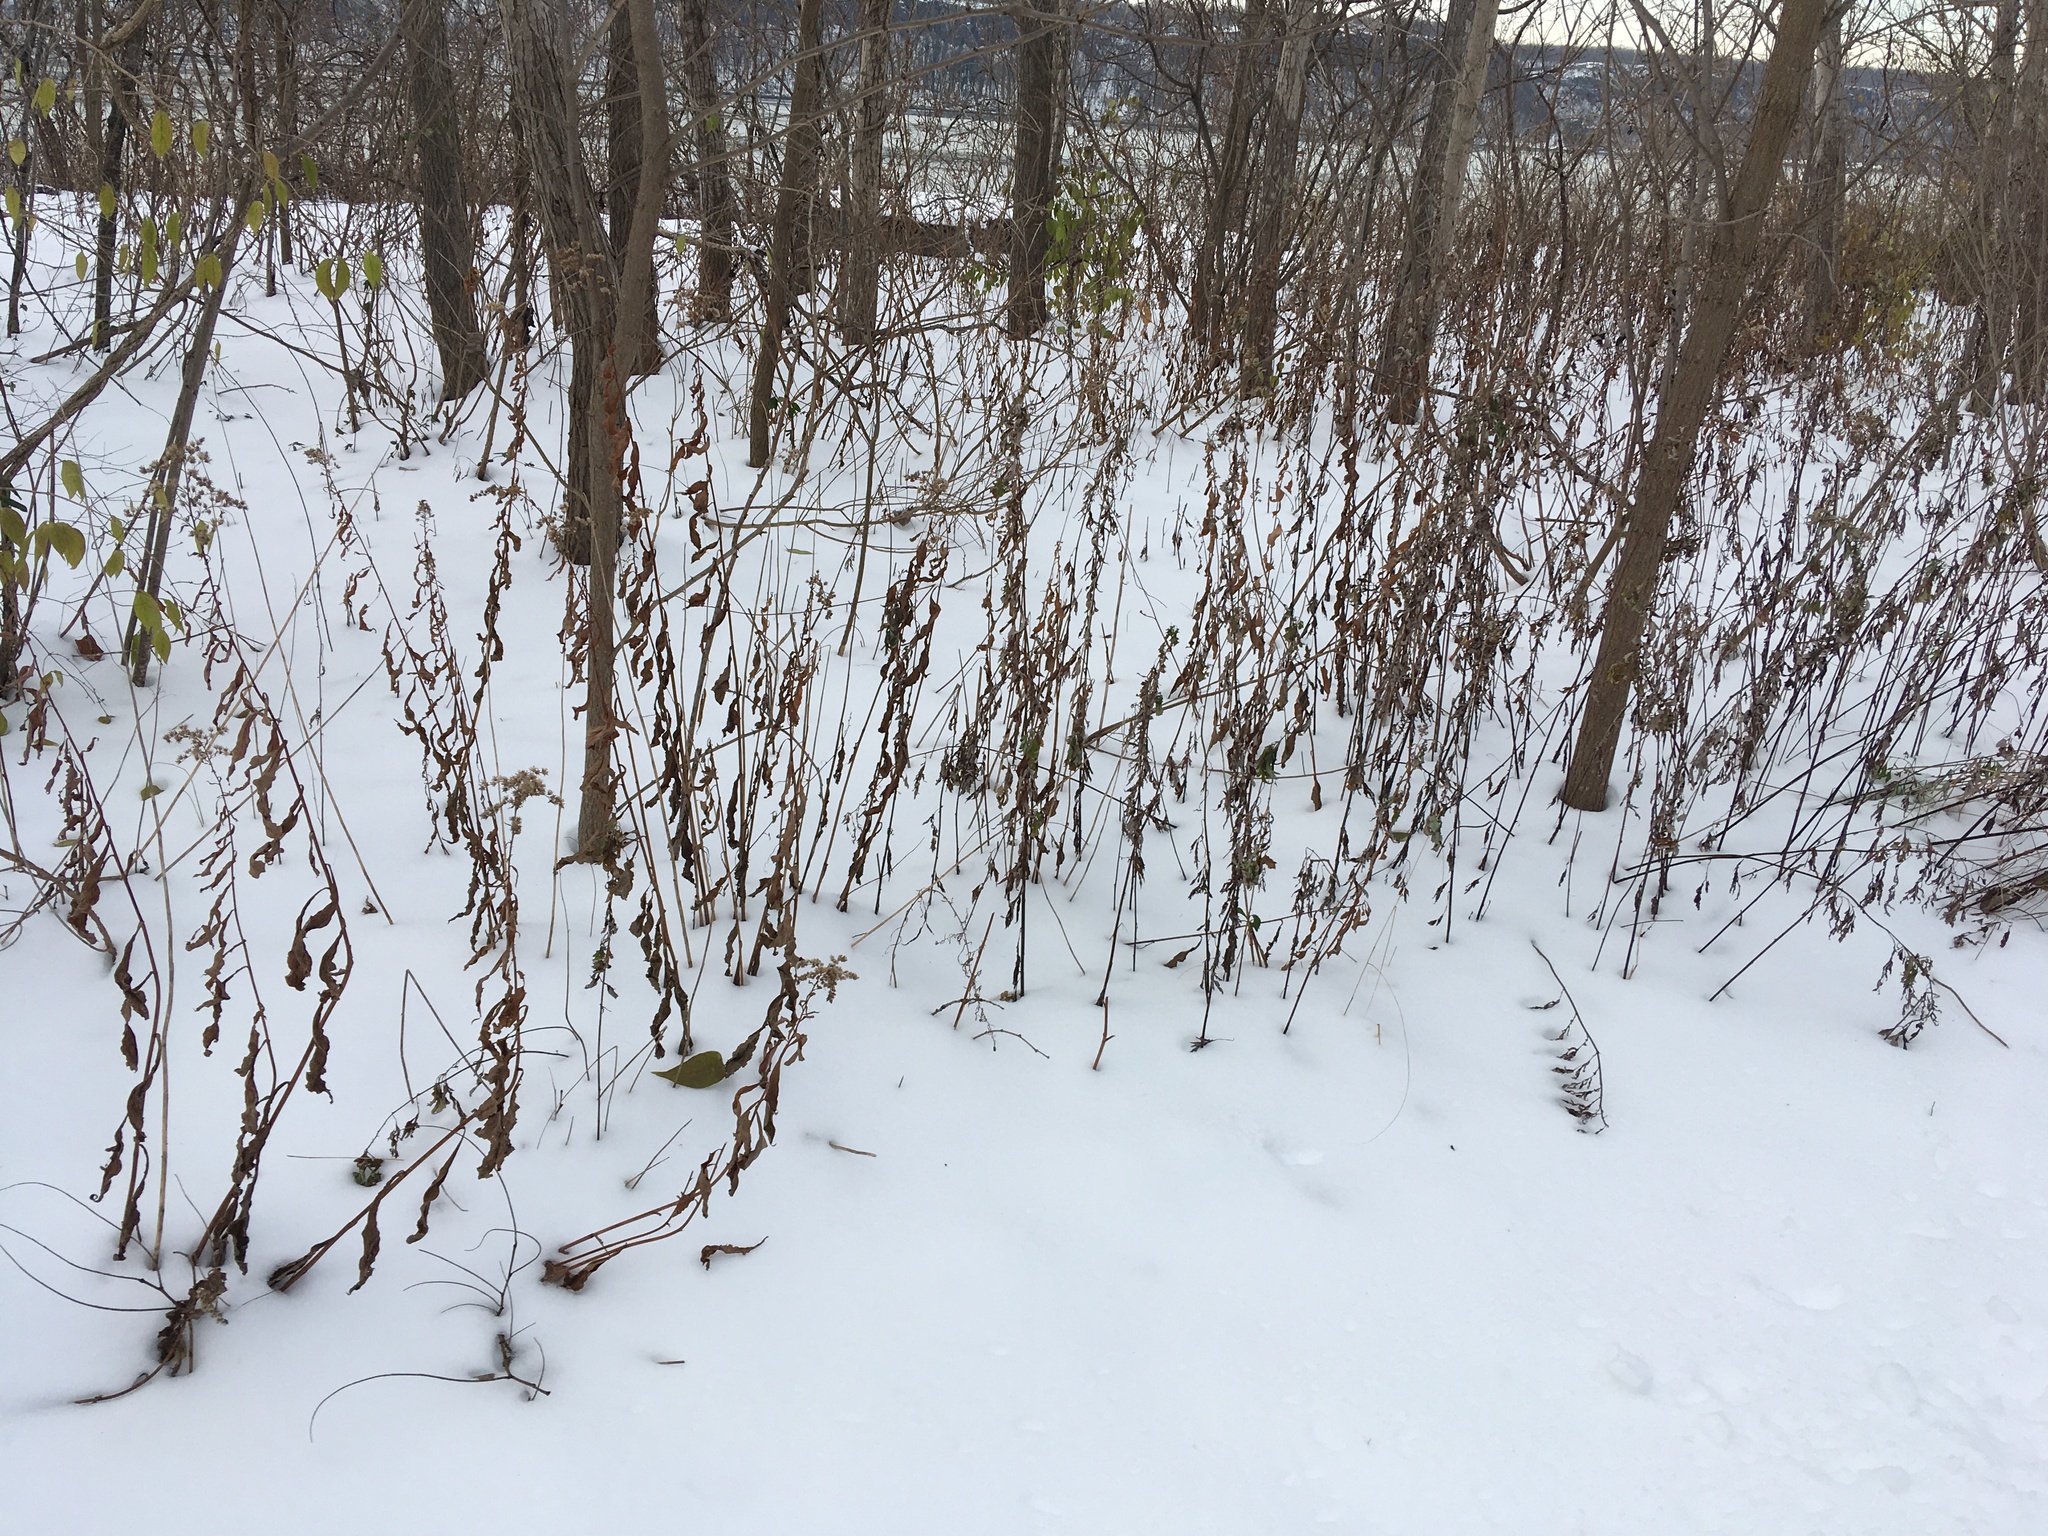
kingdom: Plantae
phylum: Tracheophyta
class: Magnoliopsida
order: Asterales
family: Asteraceae
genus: Artemisia
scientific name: Artemisia vulgaris
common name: Mugwort
